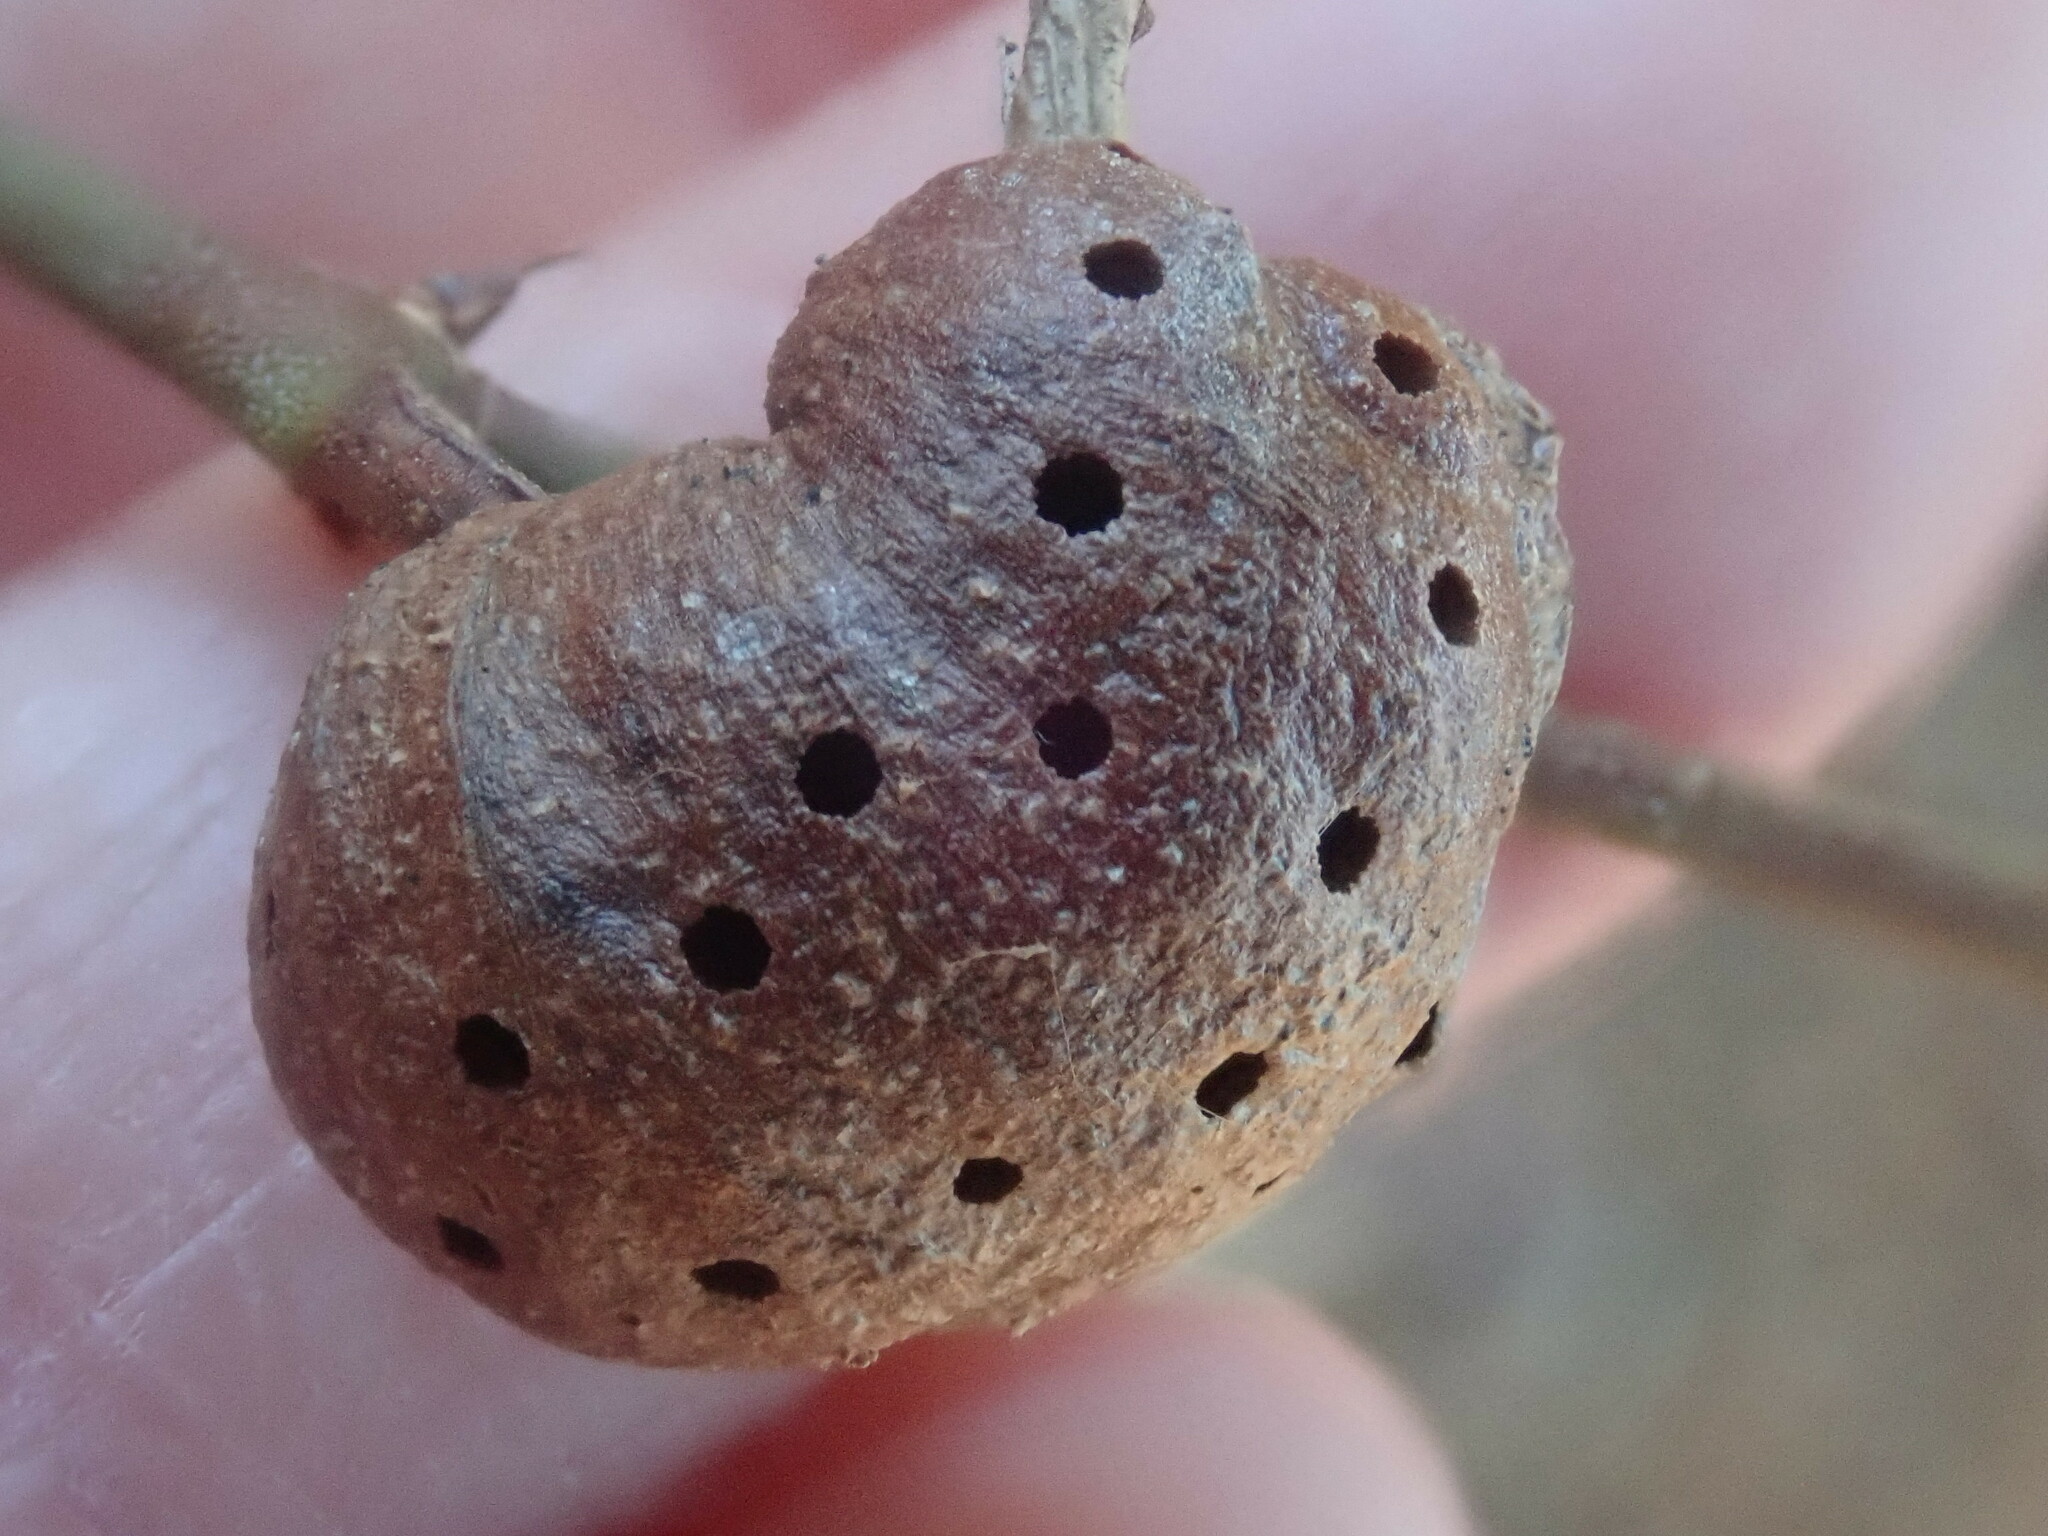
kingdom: Animalia
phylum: Arthropoda
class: Insecta
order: Hymenoptera
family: Pteromalidae
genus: Hemadas
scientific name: Hemadas nubilipennis
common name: Blueberry stem gall wasp
